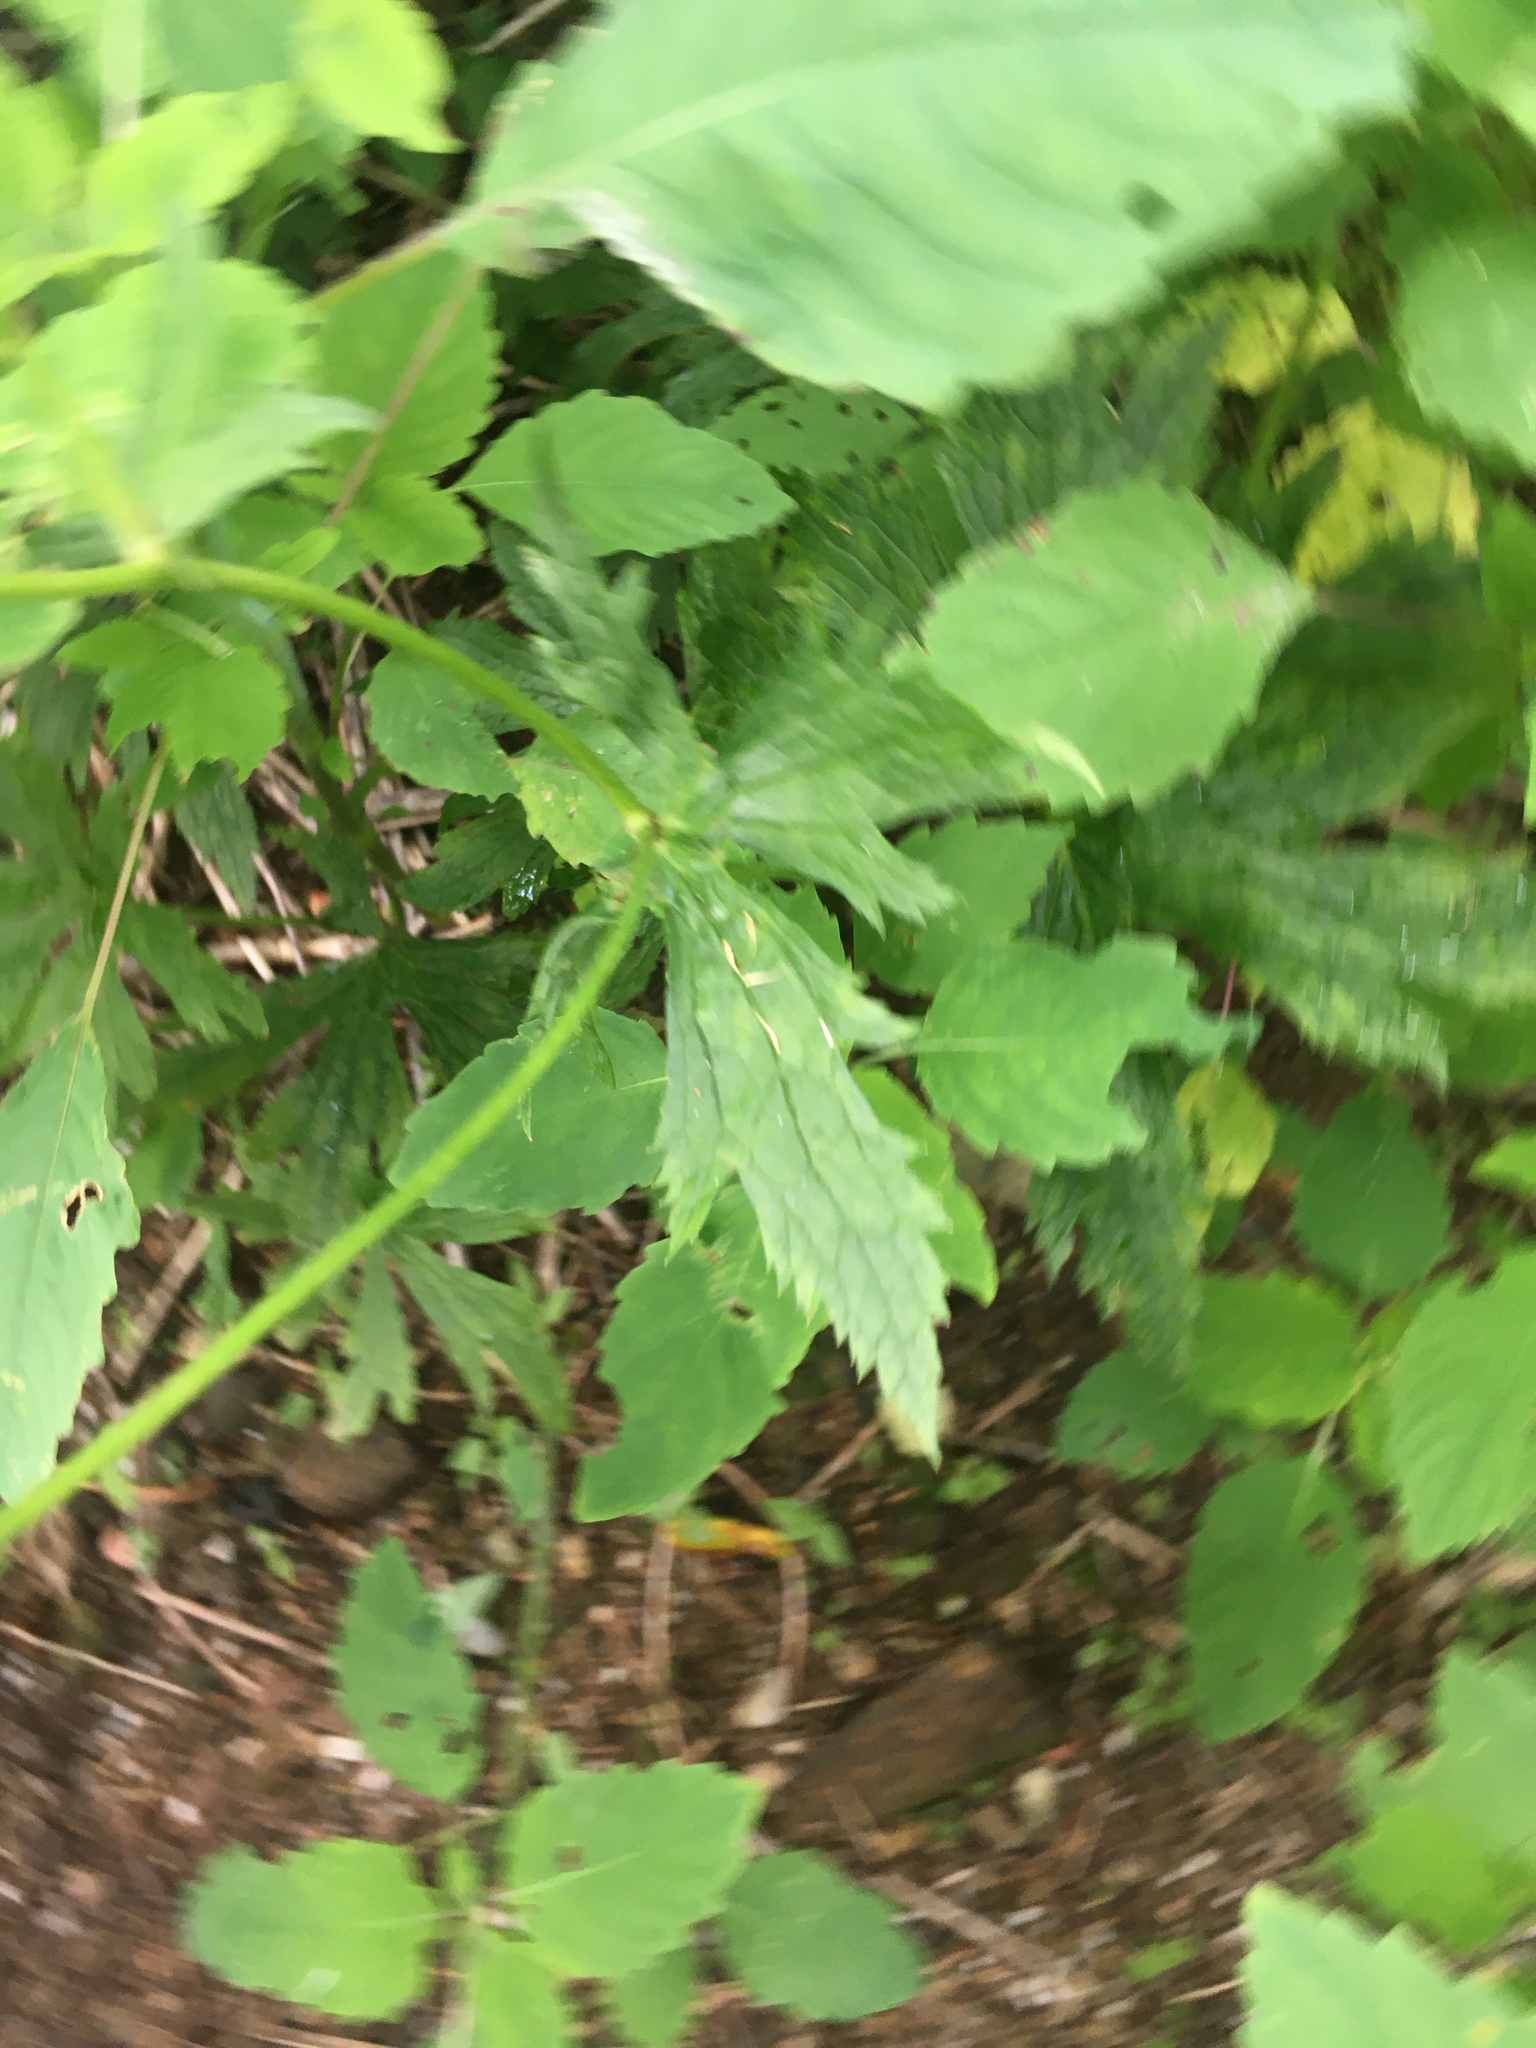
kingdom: Plantae
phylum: Tracheophyta
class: Magnoliopsida
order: Ranunculales
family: Ranunculaceae
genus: Trautvetteria
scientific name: Trautvetteria carolinensis
